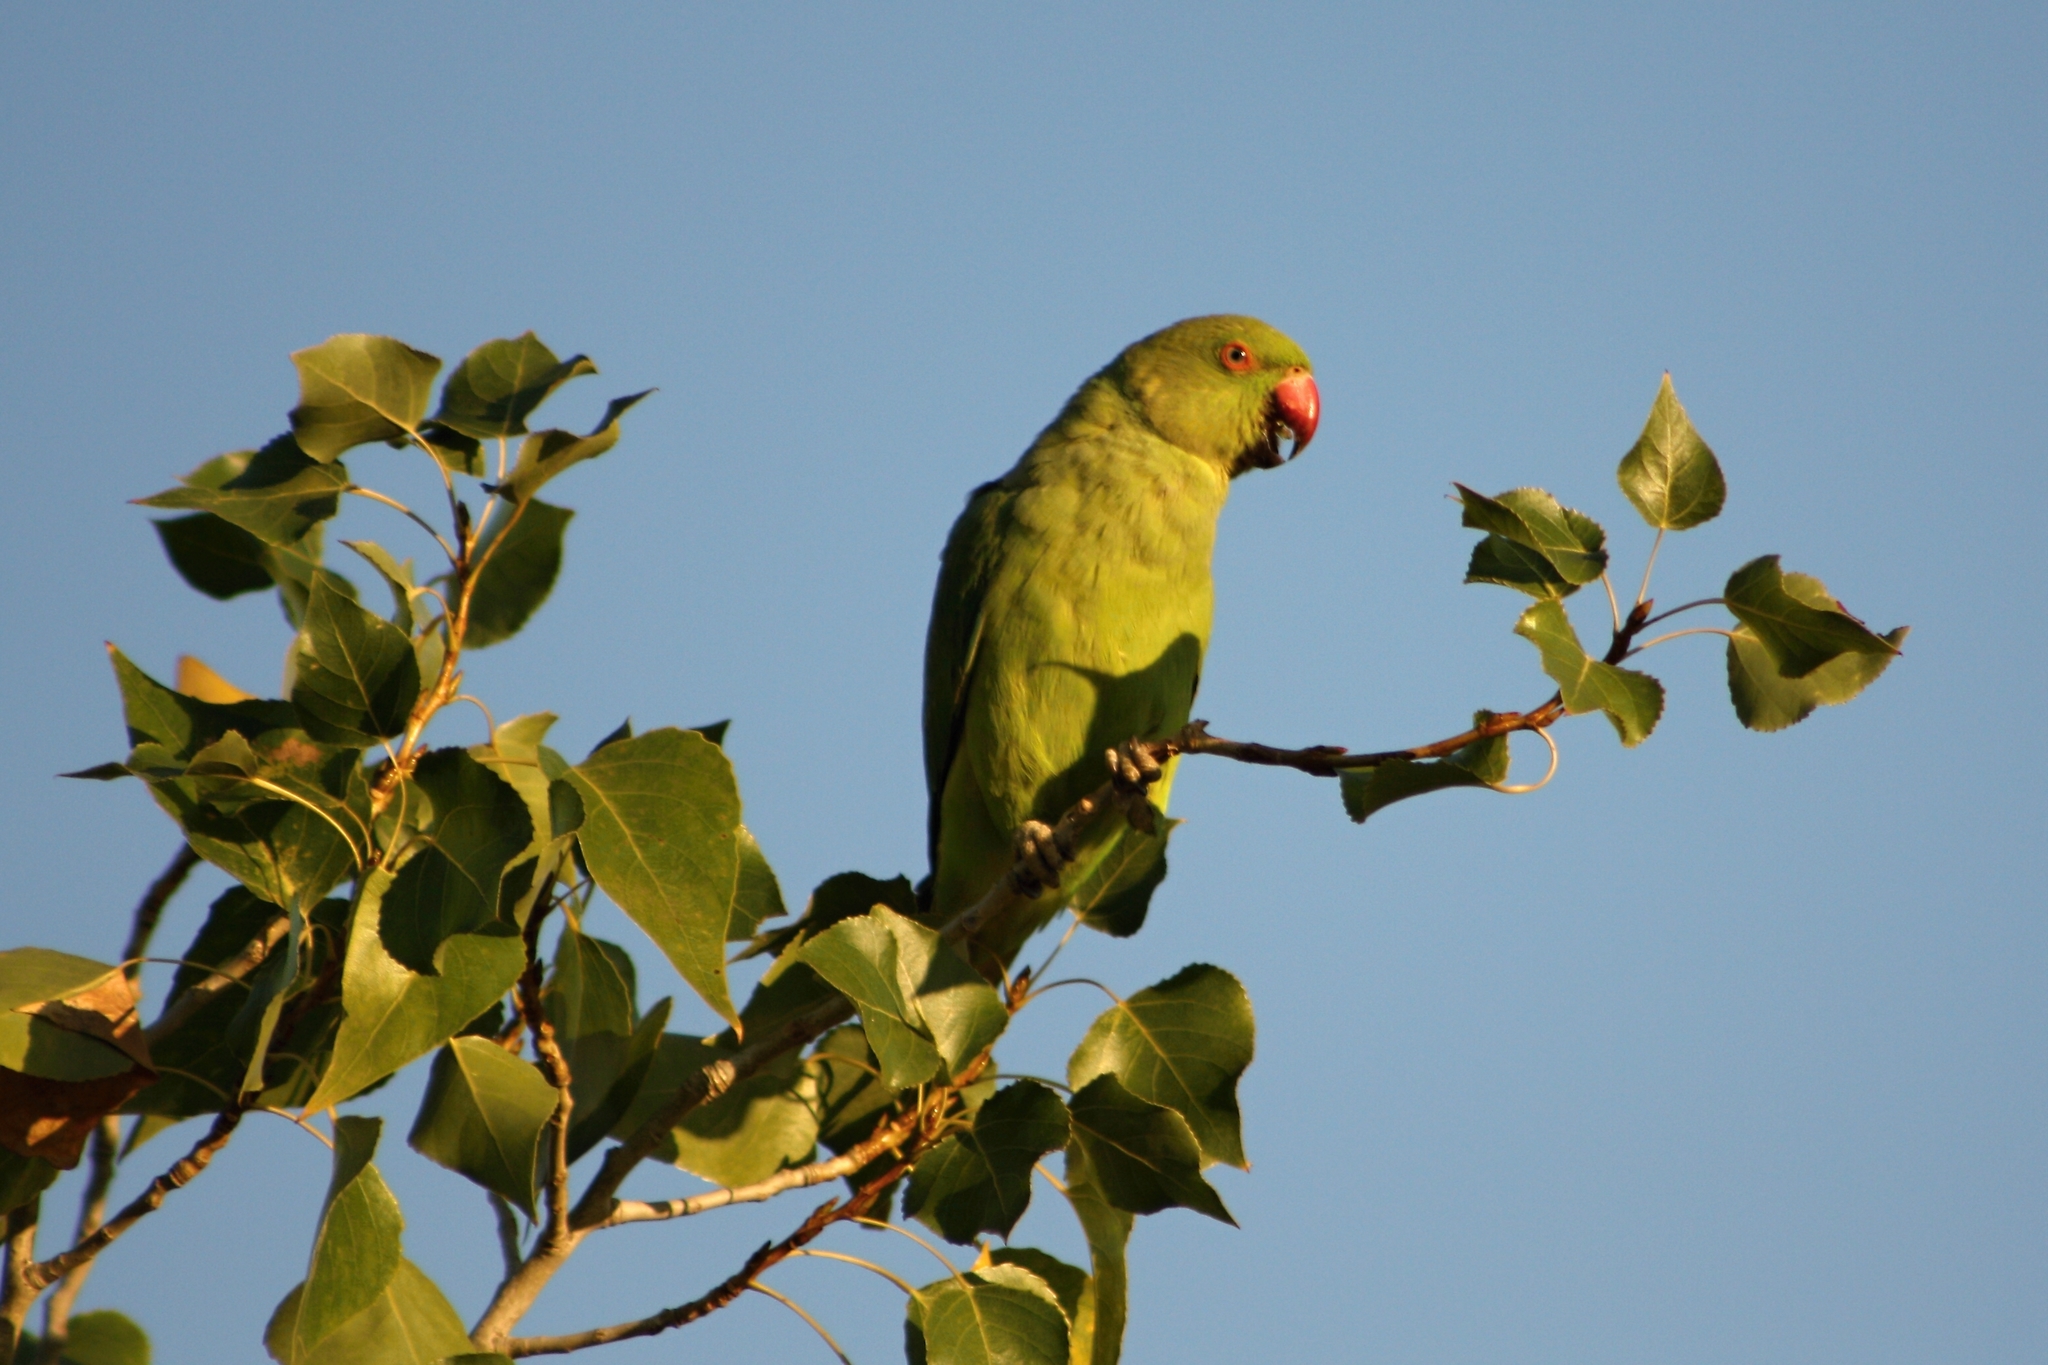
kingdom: Animalia
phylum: Chordata
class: Aves
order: Psittaciformes
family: Psittacidae
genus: Psittacula
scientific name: Psittacula krameri
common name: Rose-ringed parakeet
